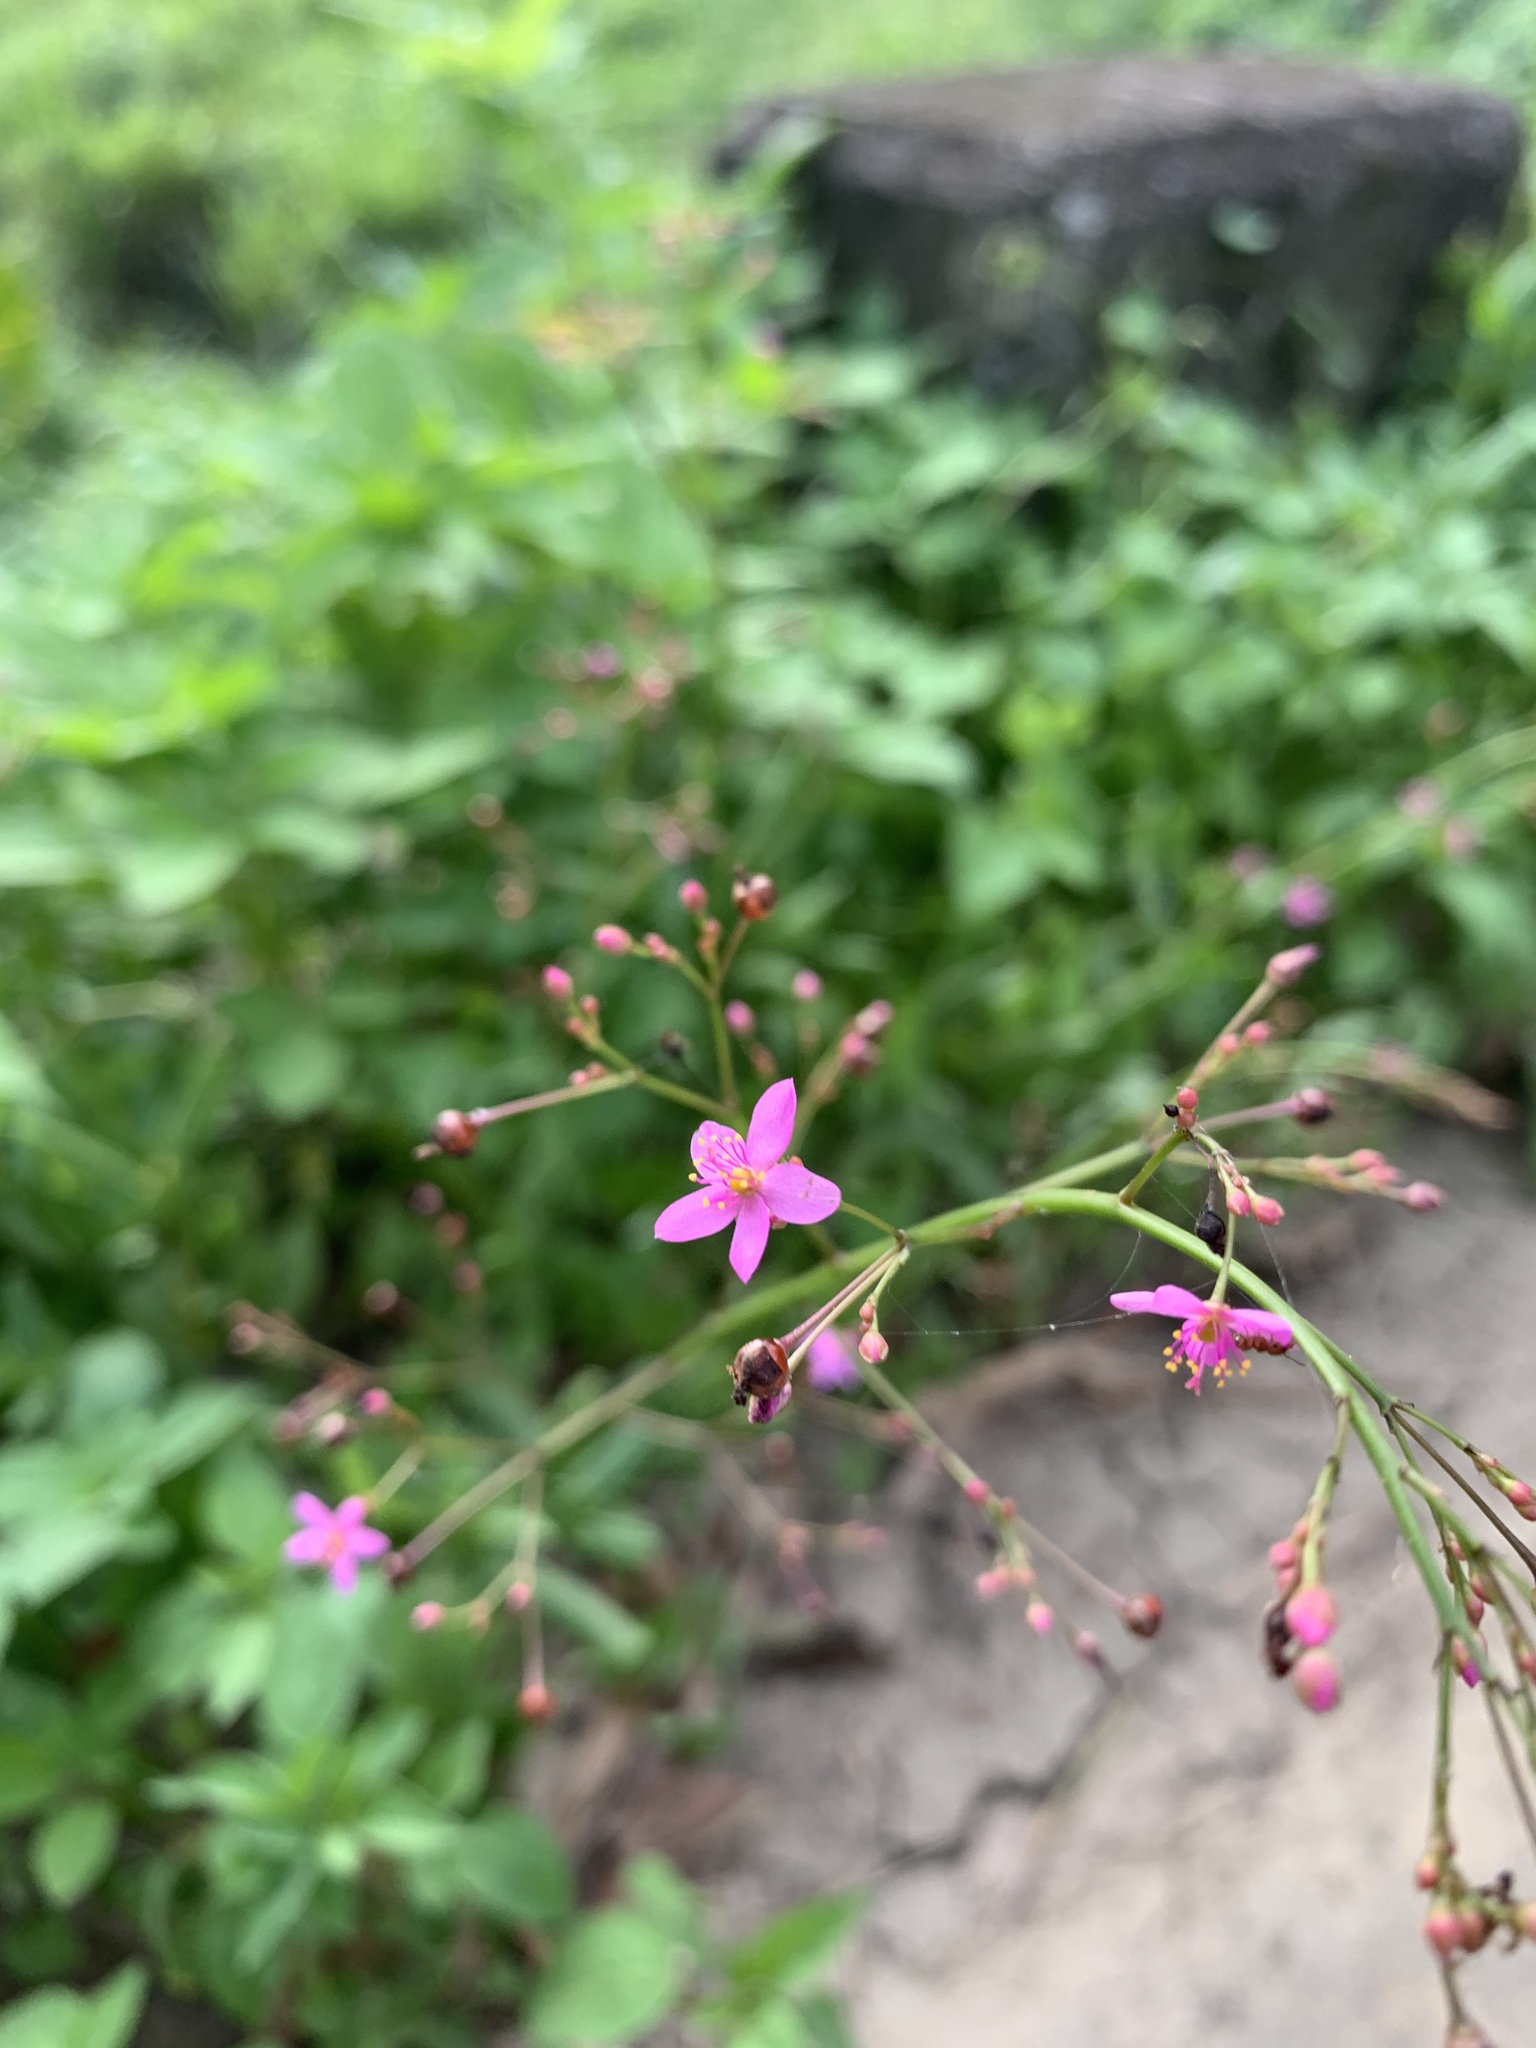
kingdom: Plantae
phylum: Tracheophyta
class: Magnoliopsida
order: Caryophyllales
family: Talinaceae
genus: Talinum
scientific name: Talinum paniculatum
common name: Jewels of opar
